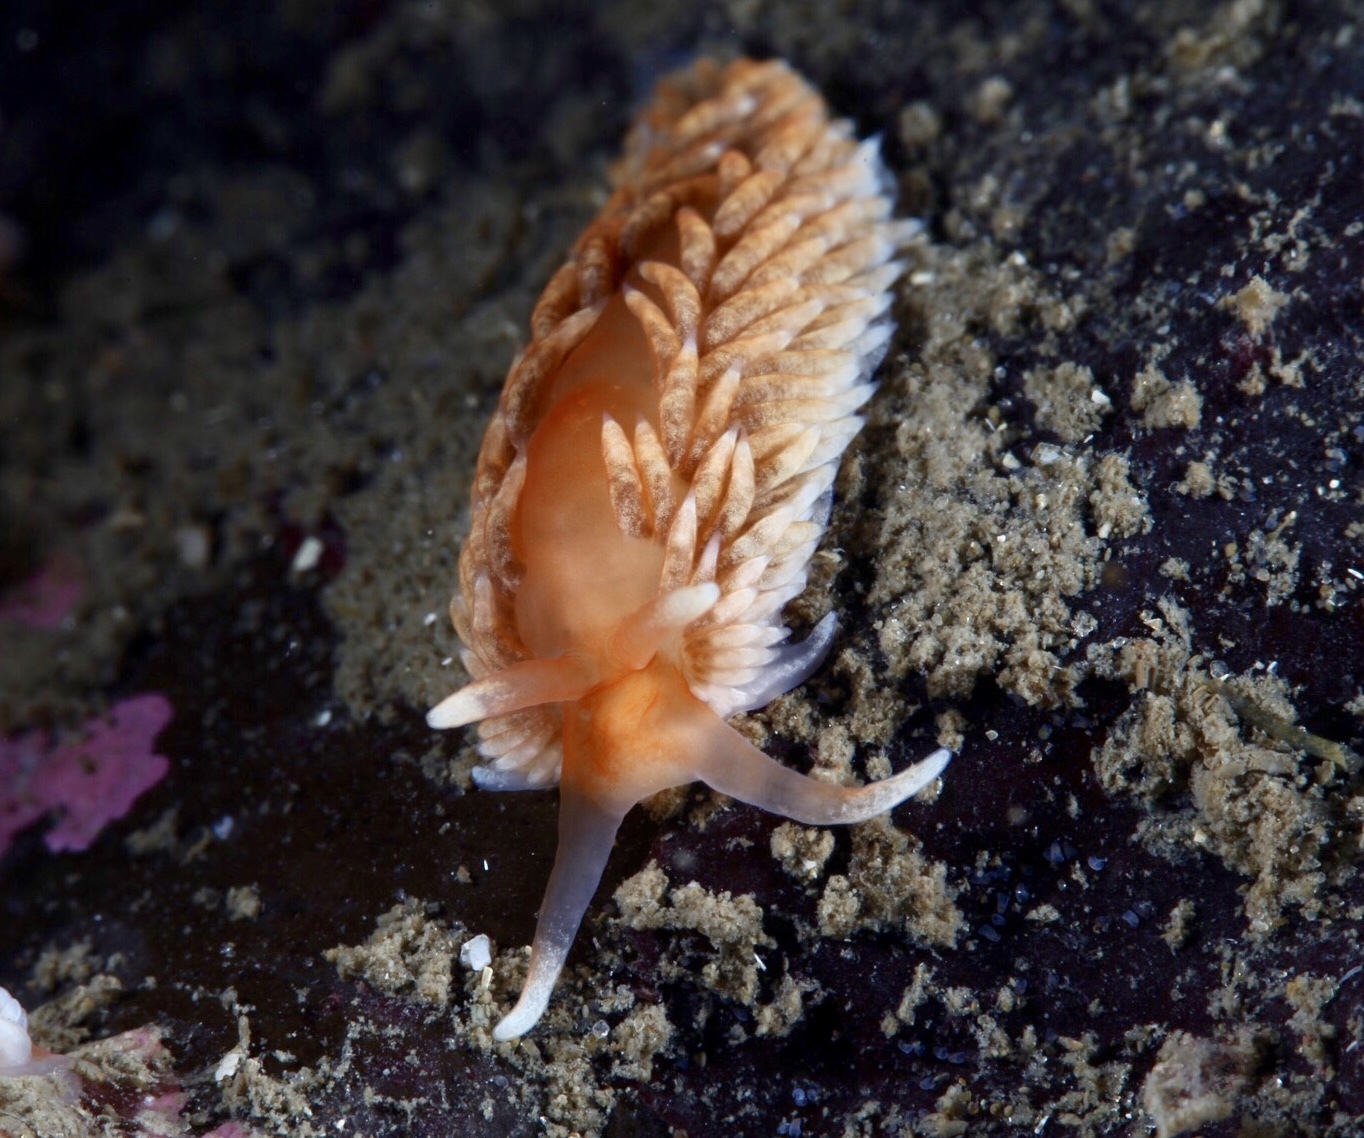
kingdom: Animalia
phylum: Mollusca
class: Gastropoda
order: Nudibranchia
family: Aeolidiidae
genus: Aeolidiella
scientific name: Aeolidiella glauca
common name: Orange-brown aeolid
